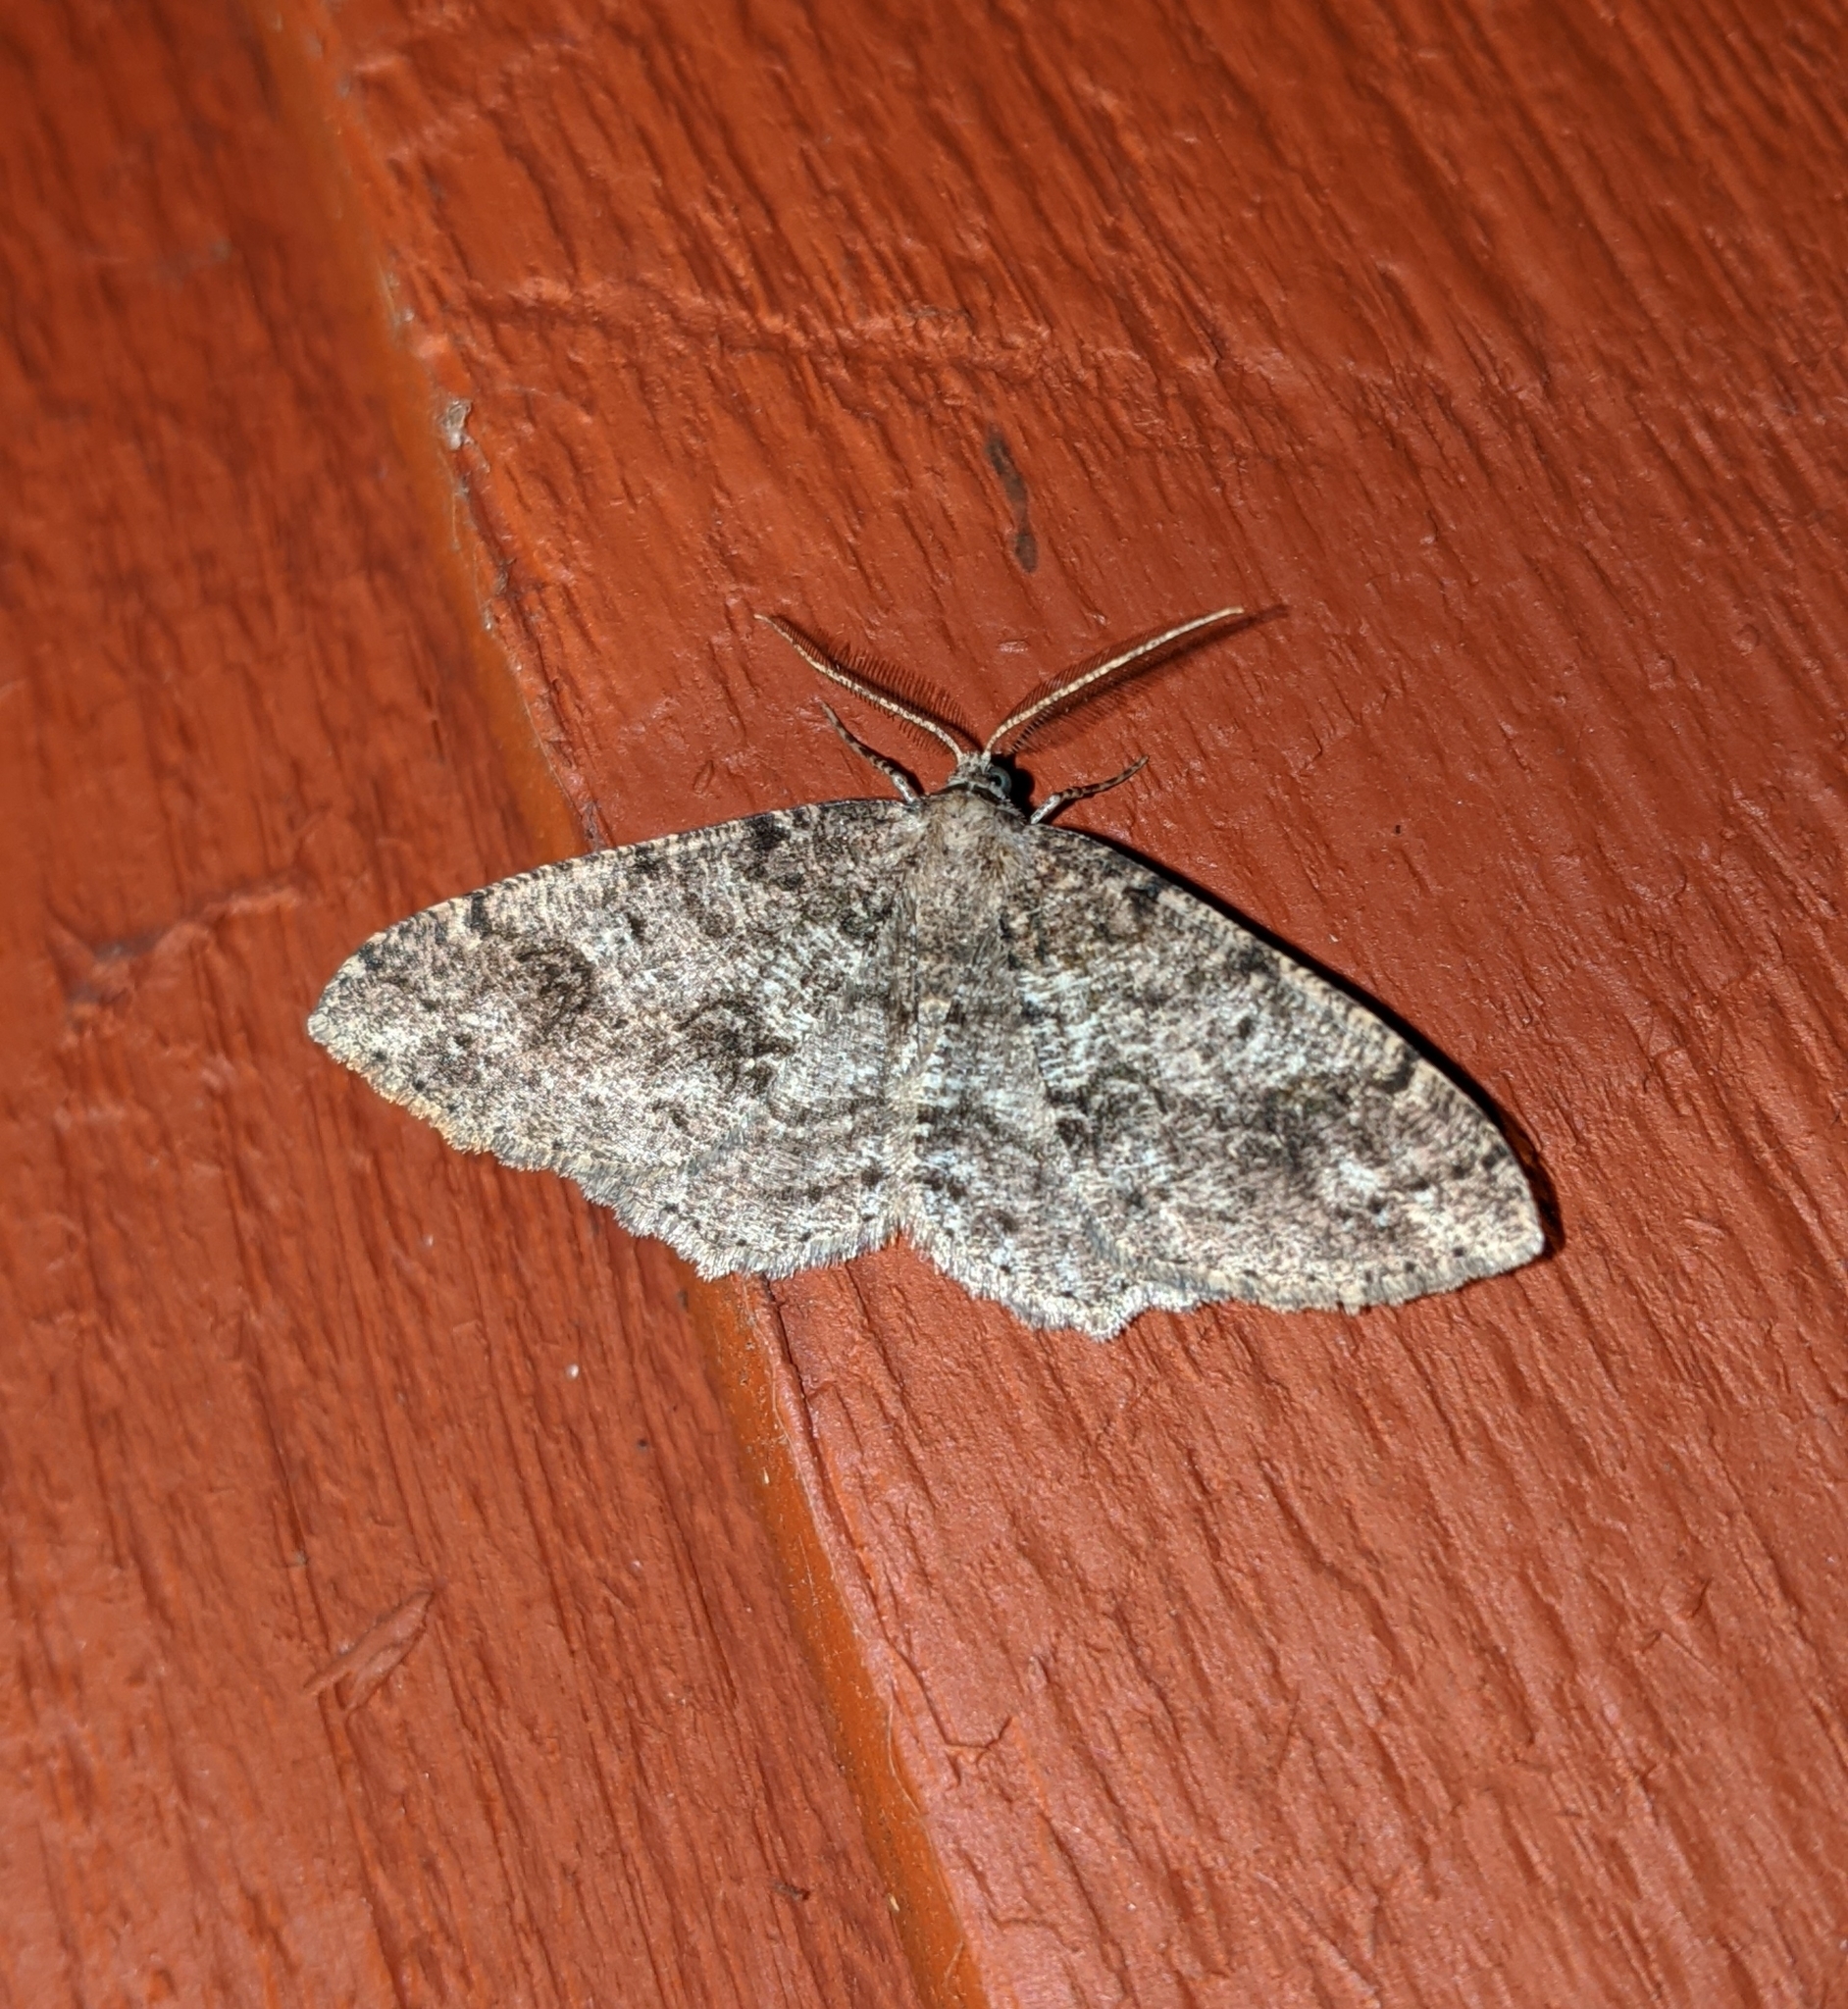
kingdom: Animalia
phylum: Arthropoda
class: Insecta
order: Lepidoptera
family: Geometridae
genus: Melanolophia
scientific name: Melanolophia imitata
